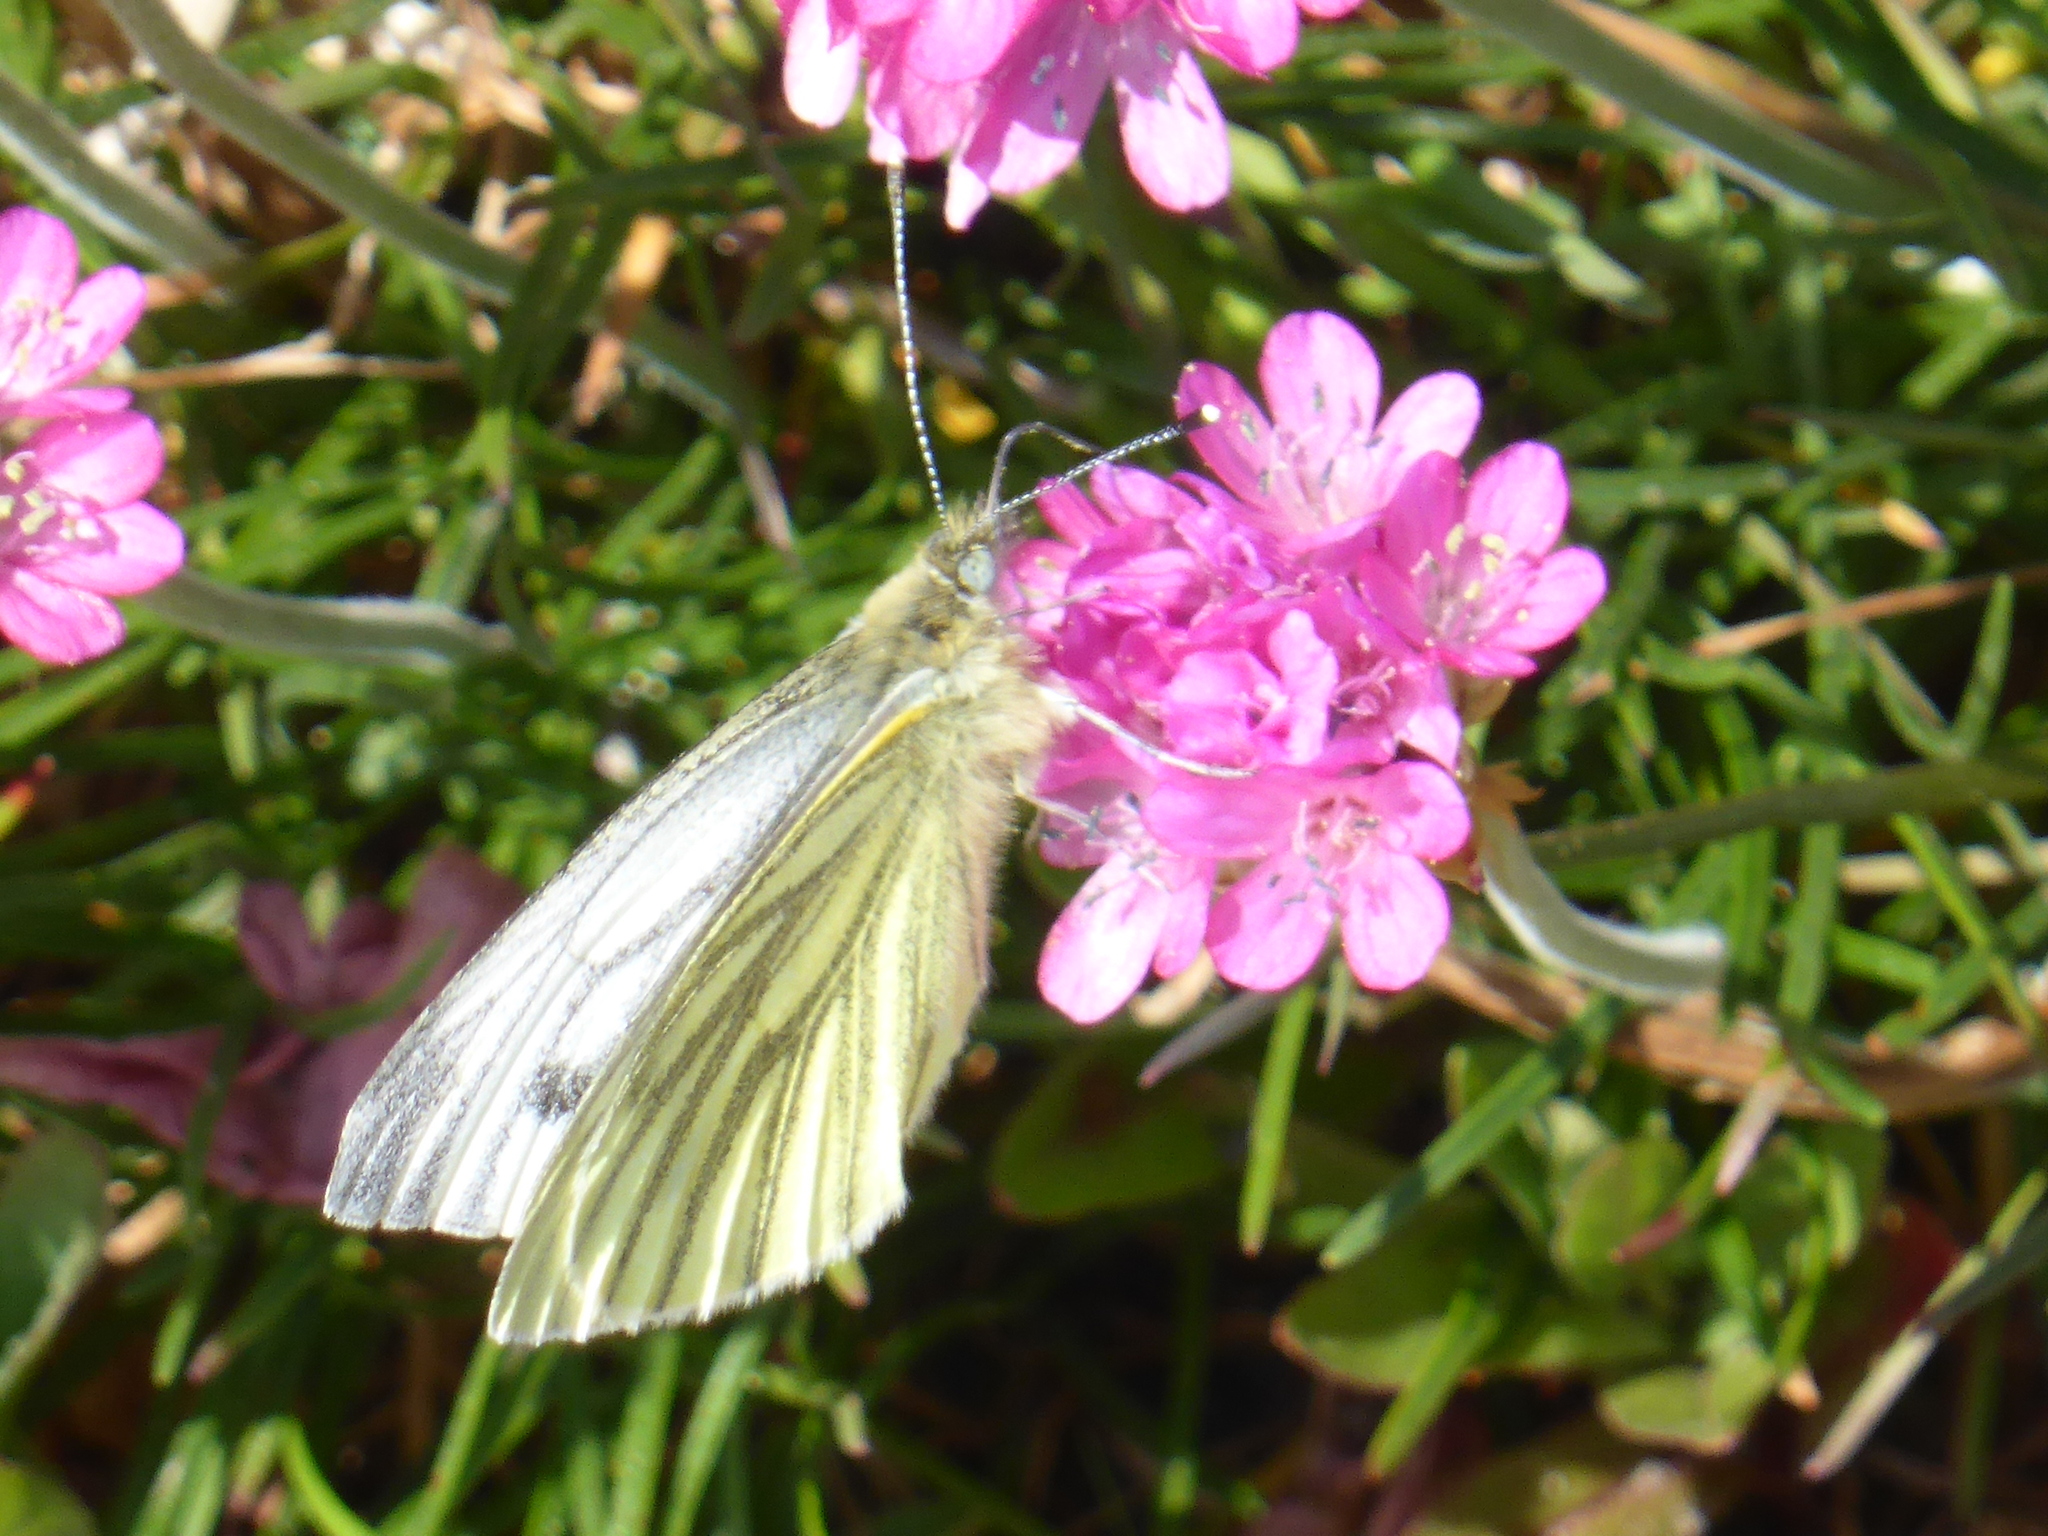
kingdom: Animalia
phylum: Arthropoda
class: Insecta
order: Lepidoptera
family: Pieridae
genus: Pieris
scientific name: Pieris napi
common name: Green-veined white
